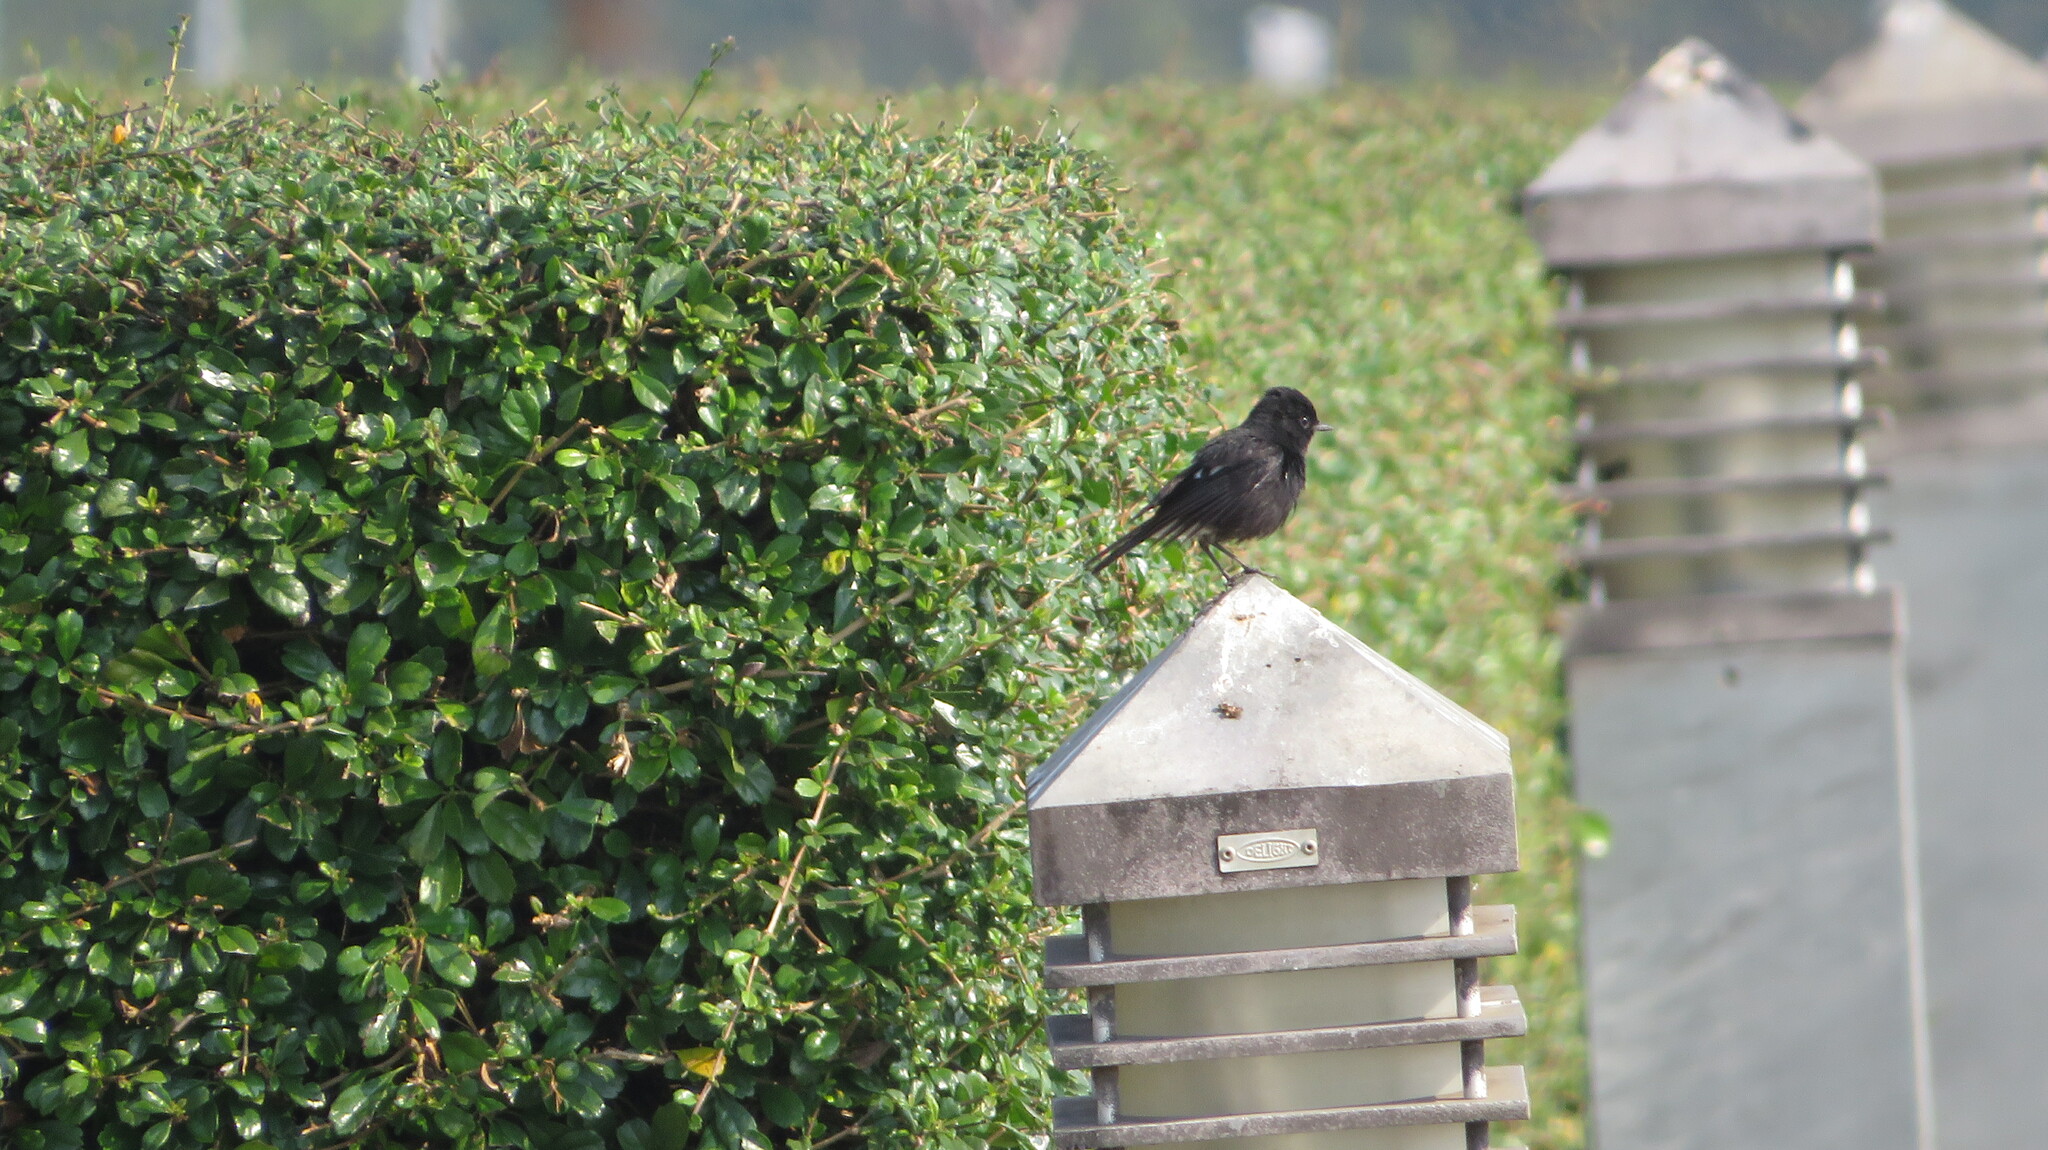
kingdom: Animalia
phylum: Chordata
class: Aves
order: Passeriformes
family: Muscicapidae
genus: Saxicola
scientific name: Saxicola caprata
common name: Pied bush chat
